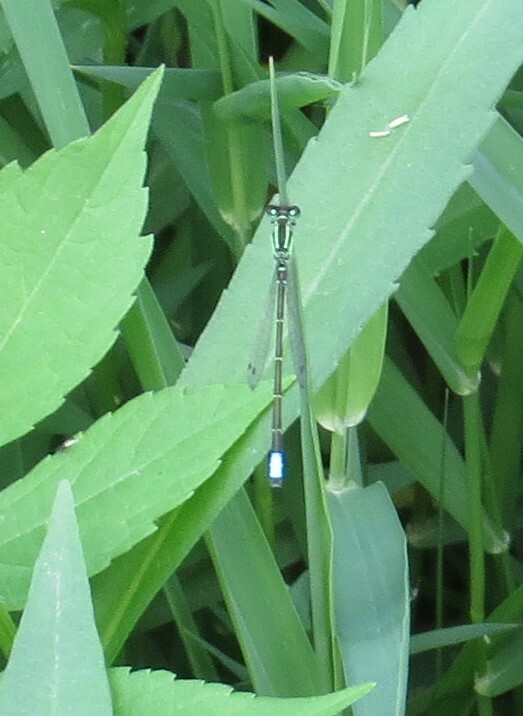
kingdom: Animalia
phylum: Arthropoda
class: Insecta
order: Odonata
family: Coenagrionidae
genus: Ischnura
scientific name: Ischnura verticalis
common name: Eastern forktail
